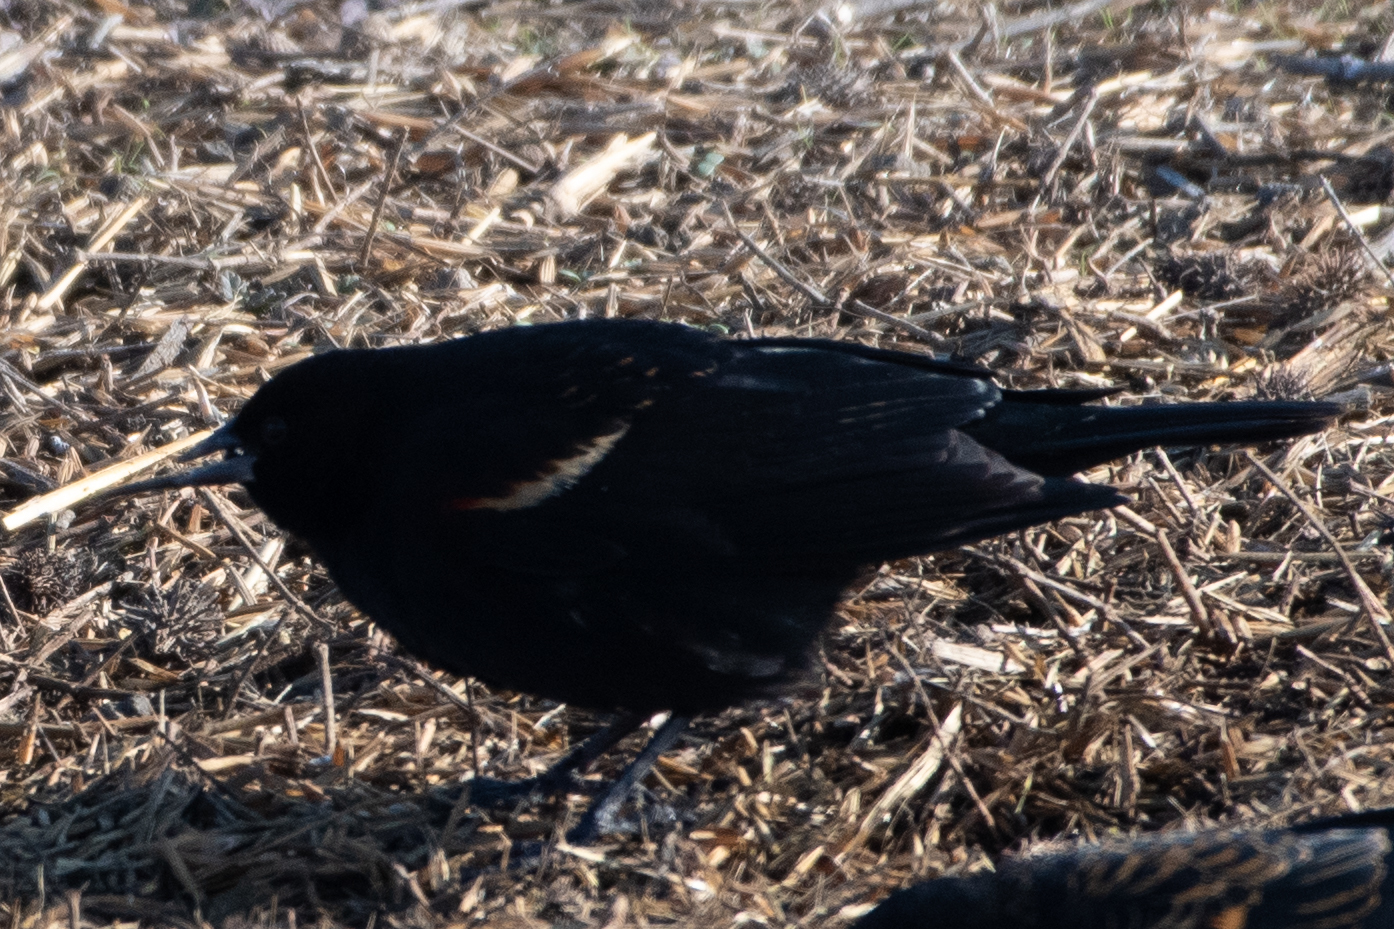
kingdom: Animalia
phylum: Chordata
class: Aves
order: Passeriformes
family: Icteridae
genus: Agelaius
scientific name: Agelaius tricolor
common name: Tricolored blackbird
